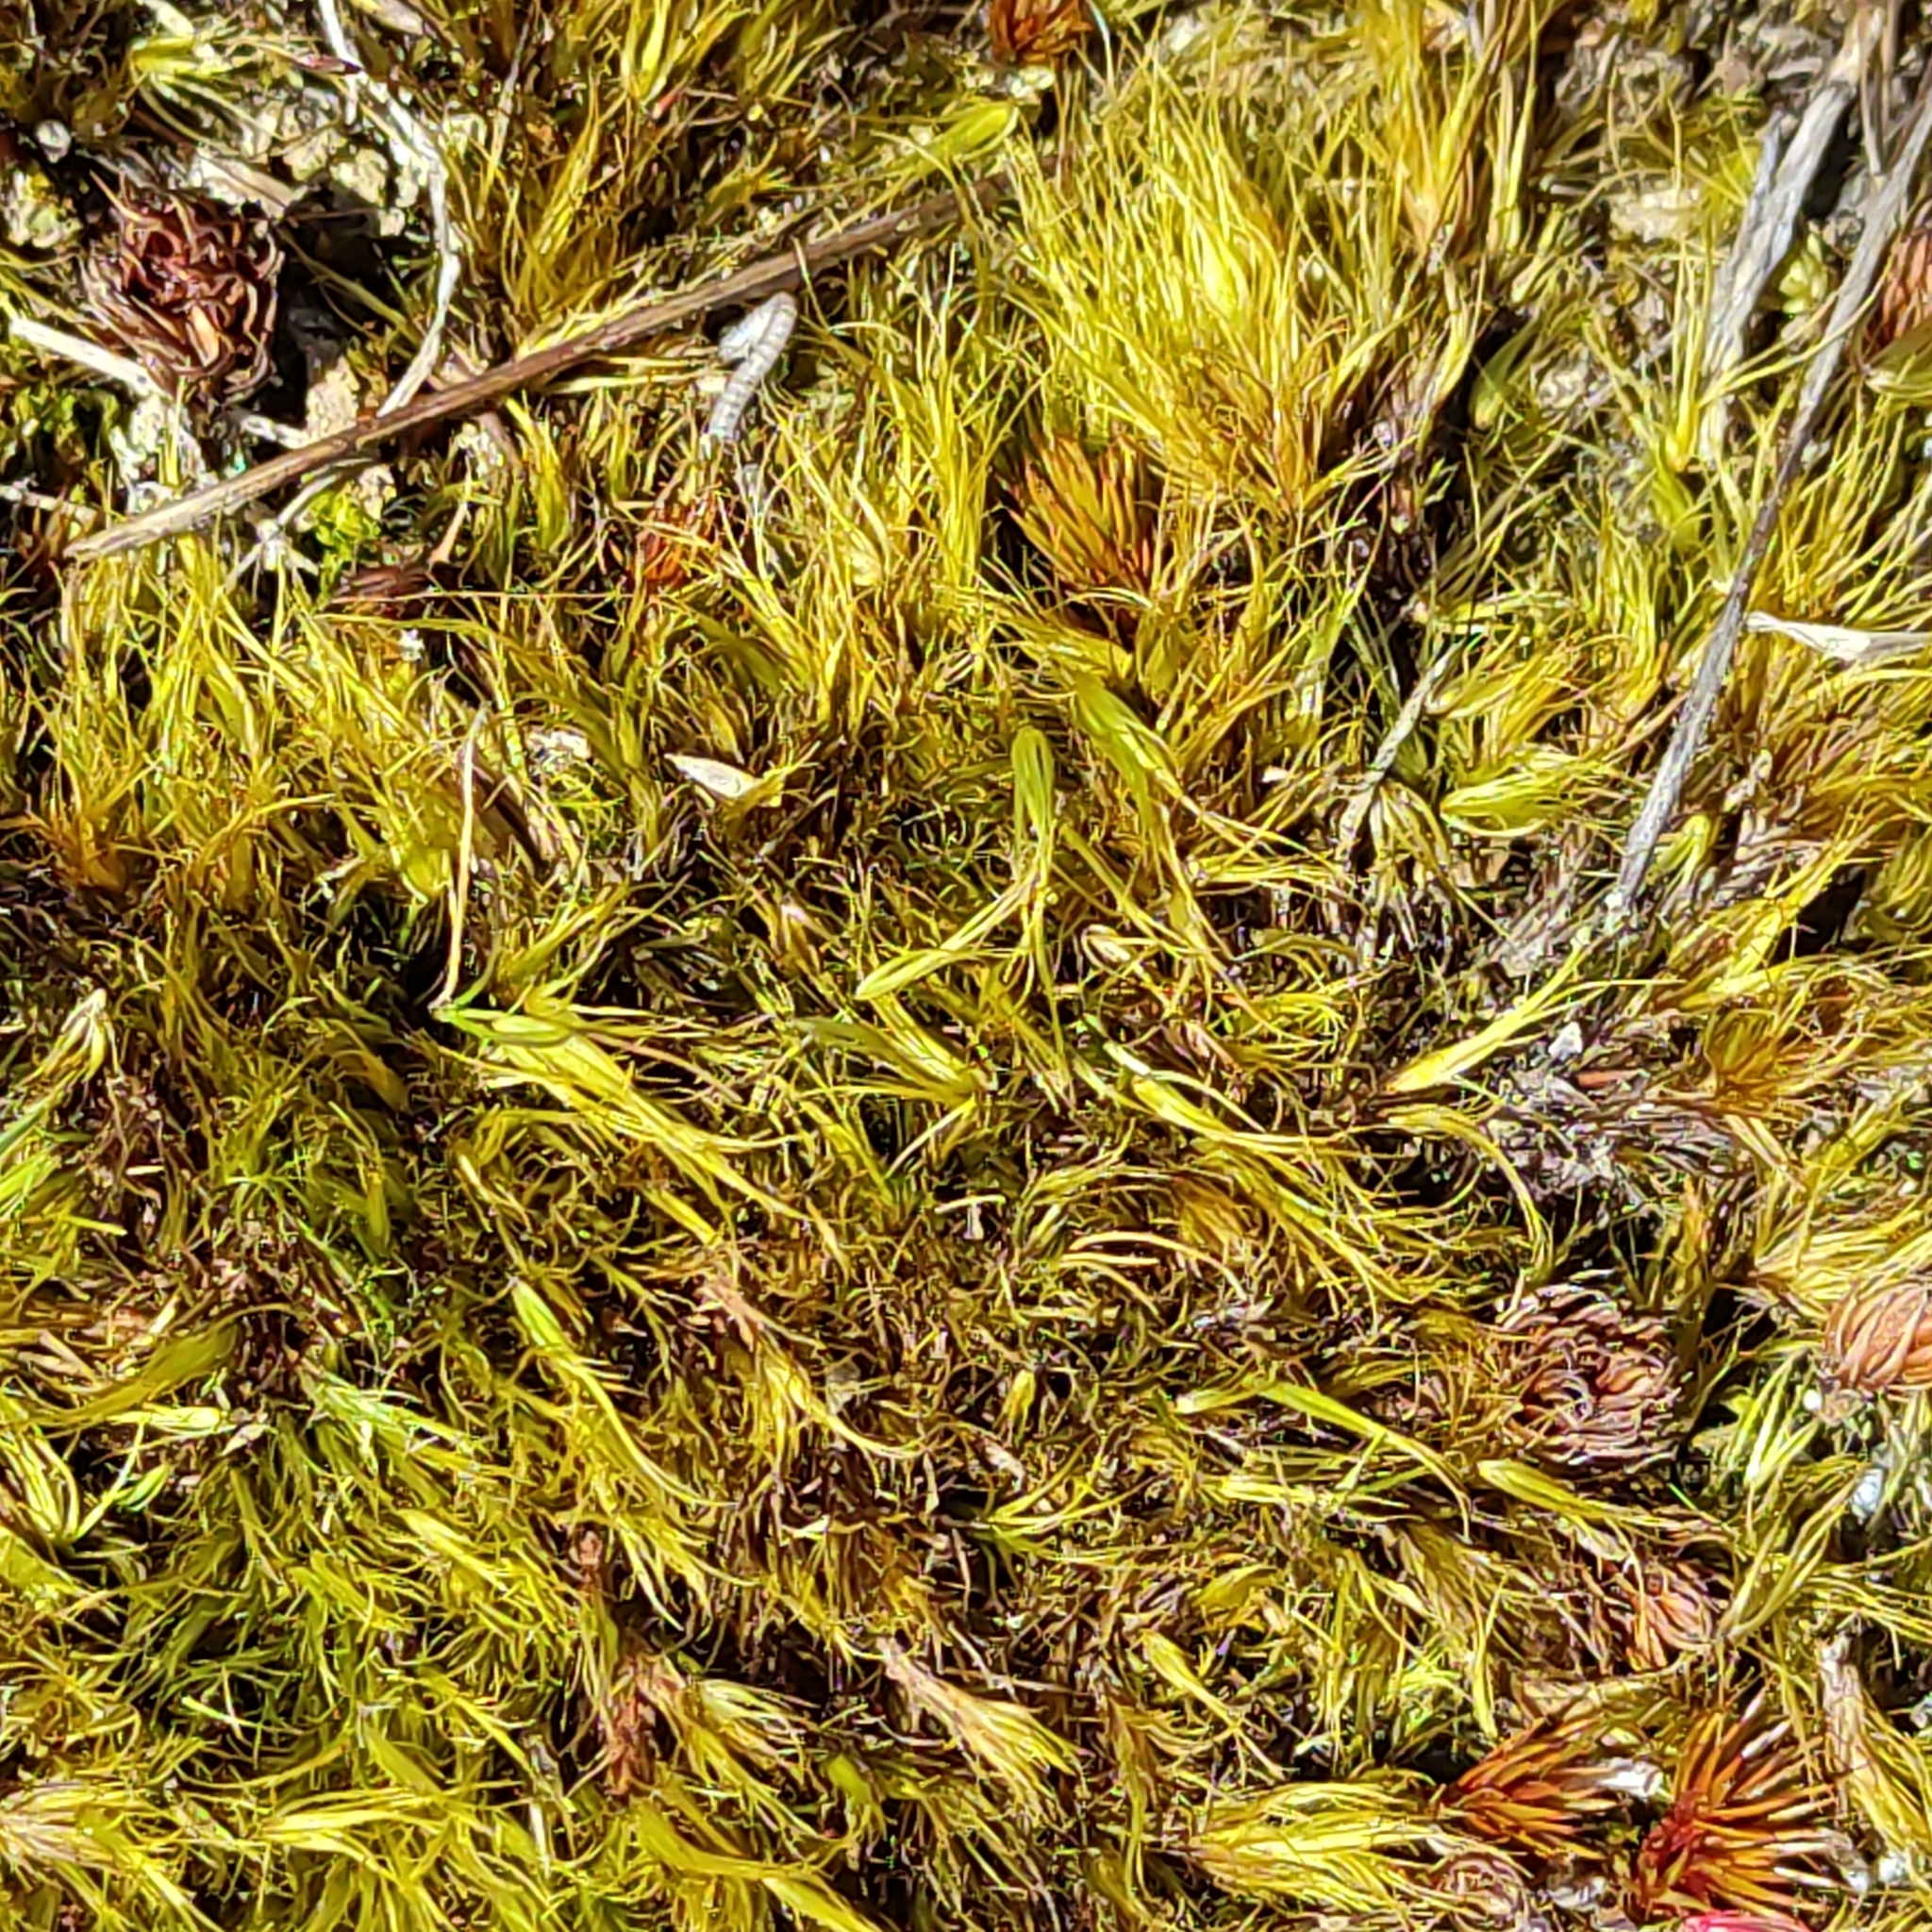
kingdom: Plantae
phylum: Bryophyta
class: Bryopsida
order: Dicranales
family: Leucobryaceae
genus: Campylopus
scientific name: Campylopus clavatus
